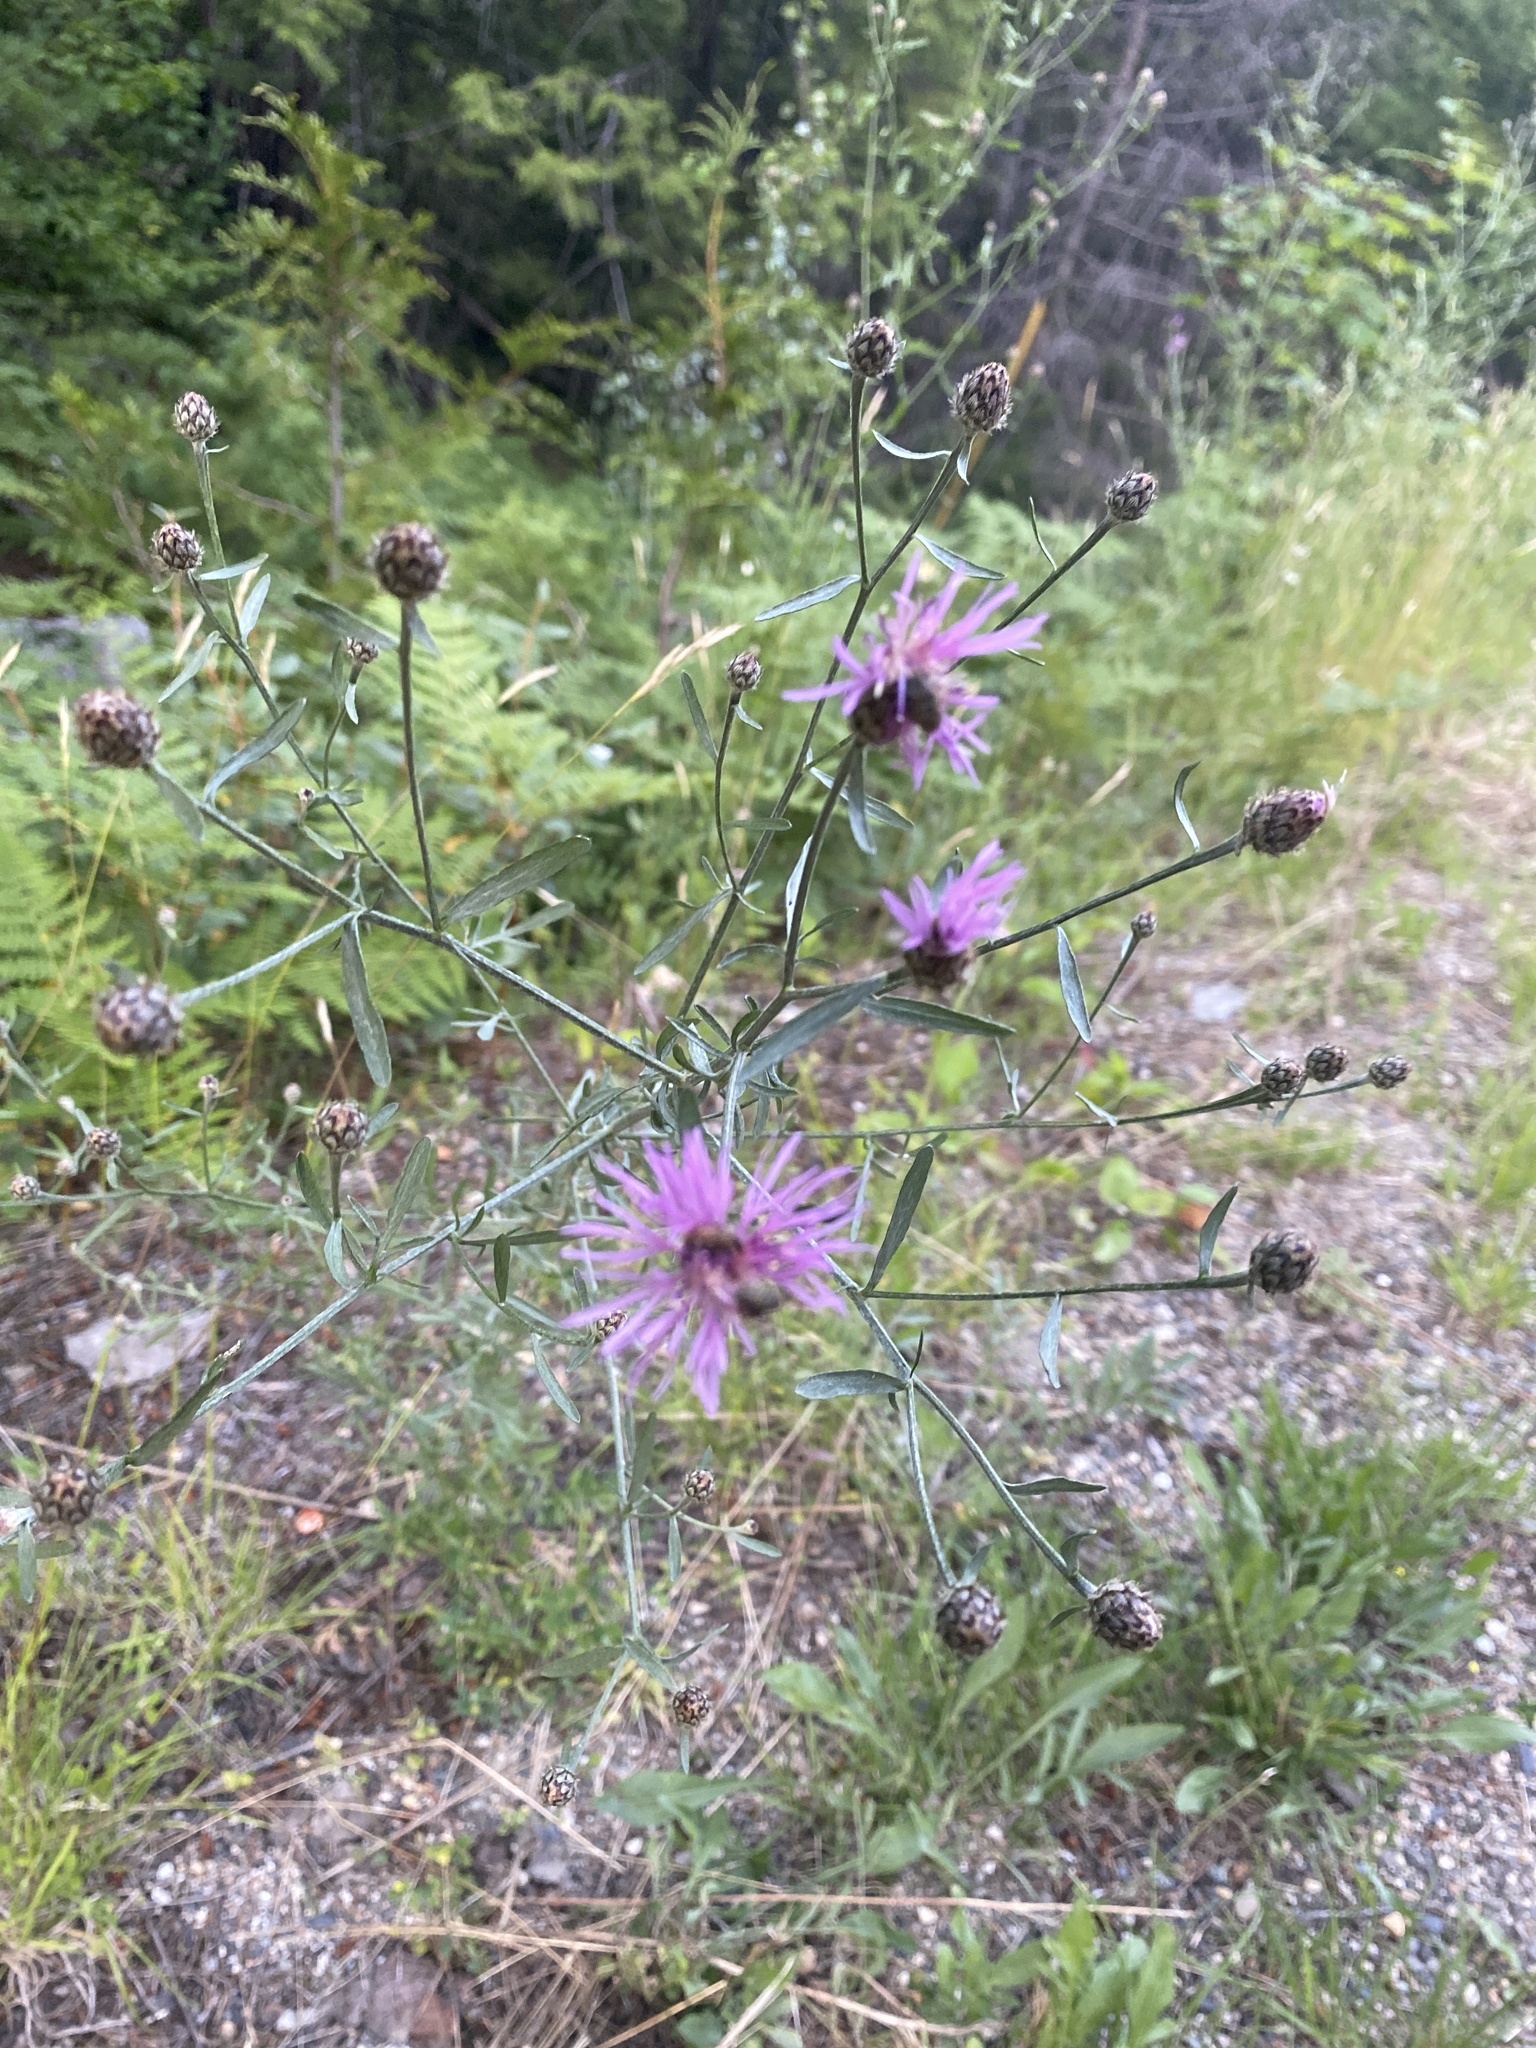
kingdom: Plantae
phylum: Tracheophyta
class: Magnoliopsida
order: Asterales
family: Asteraceae
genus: Centaurea
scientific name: Centaurea stoebe
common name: Spotted knapweed
